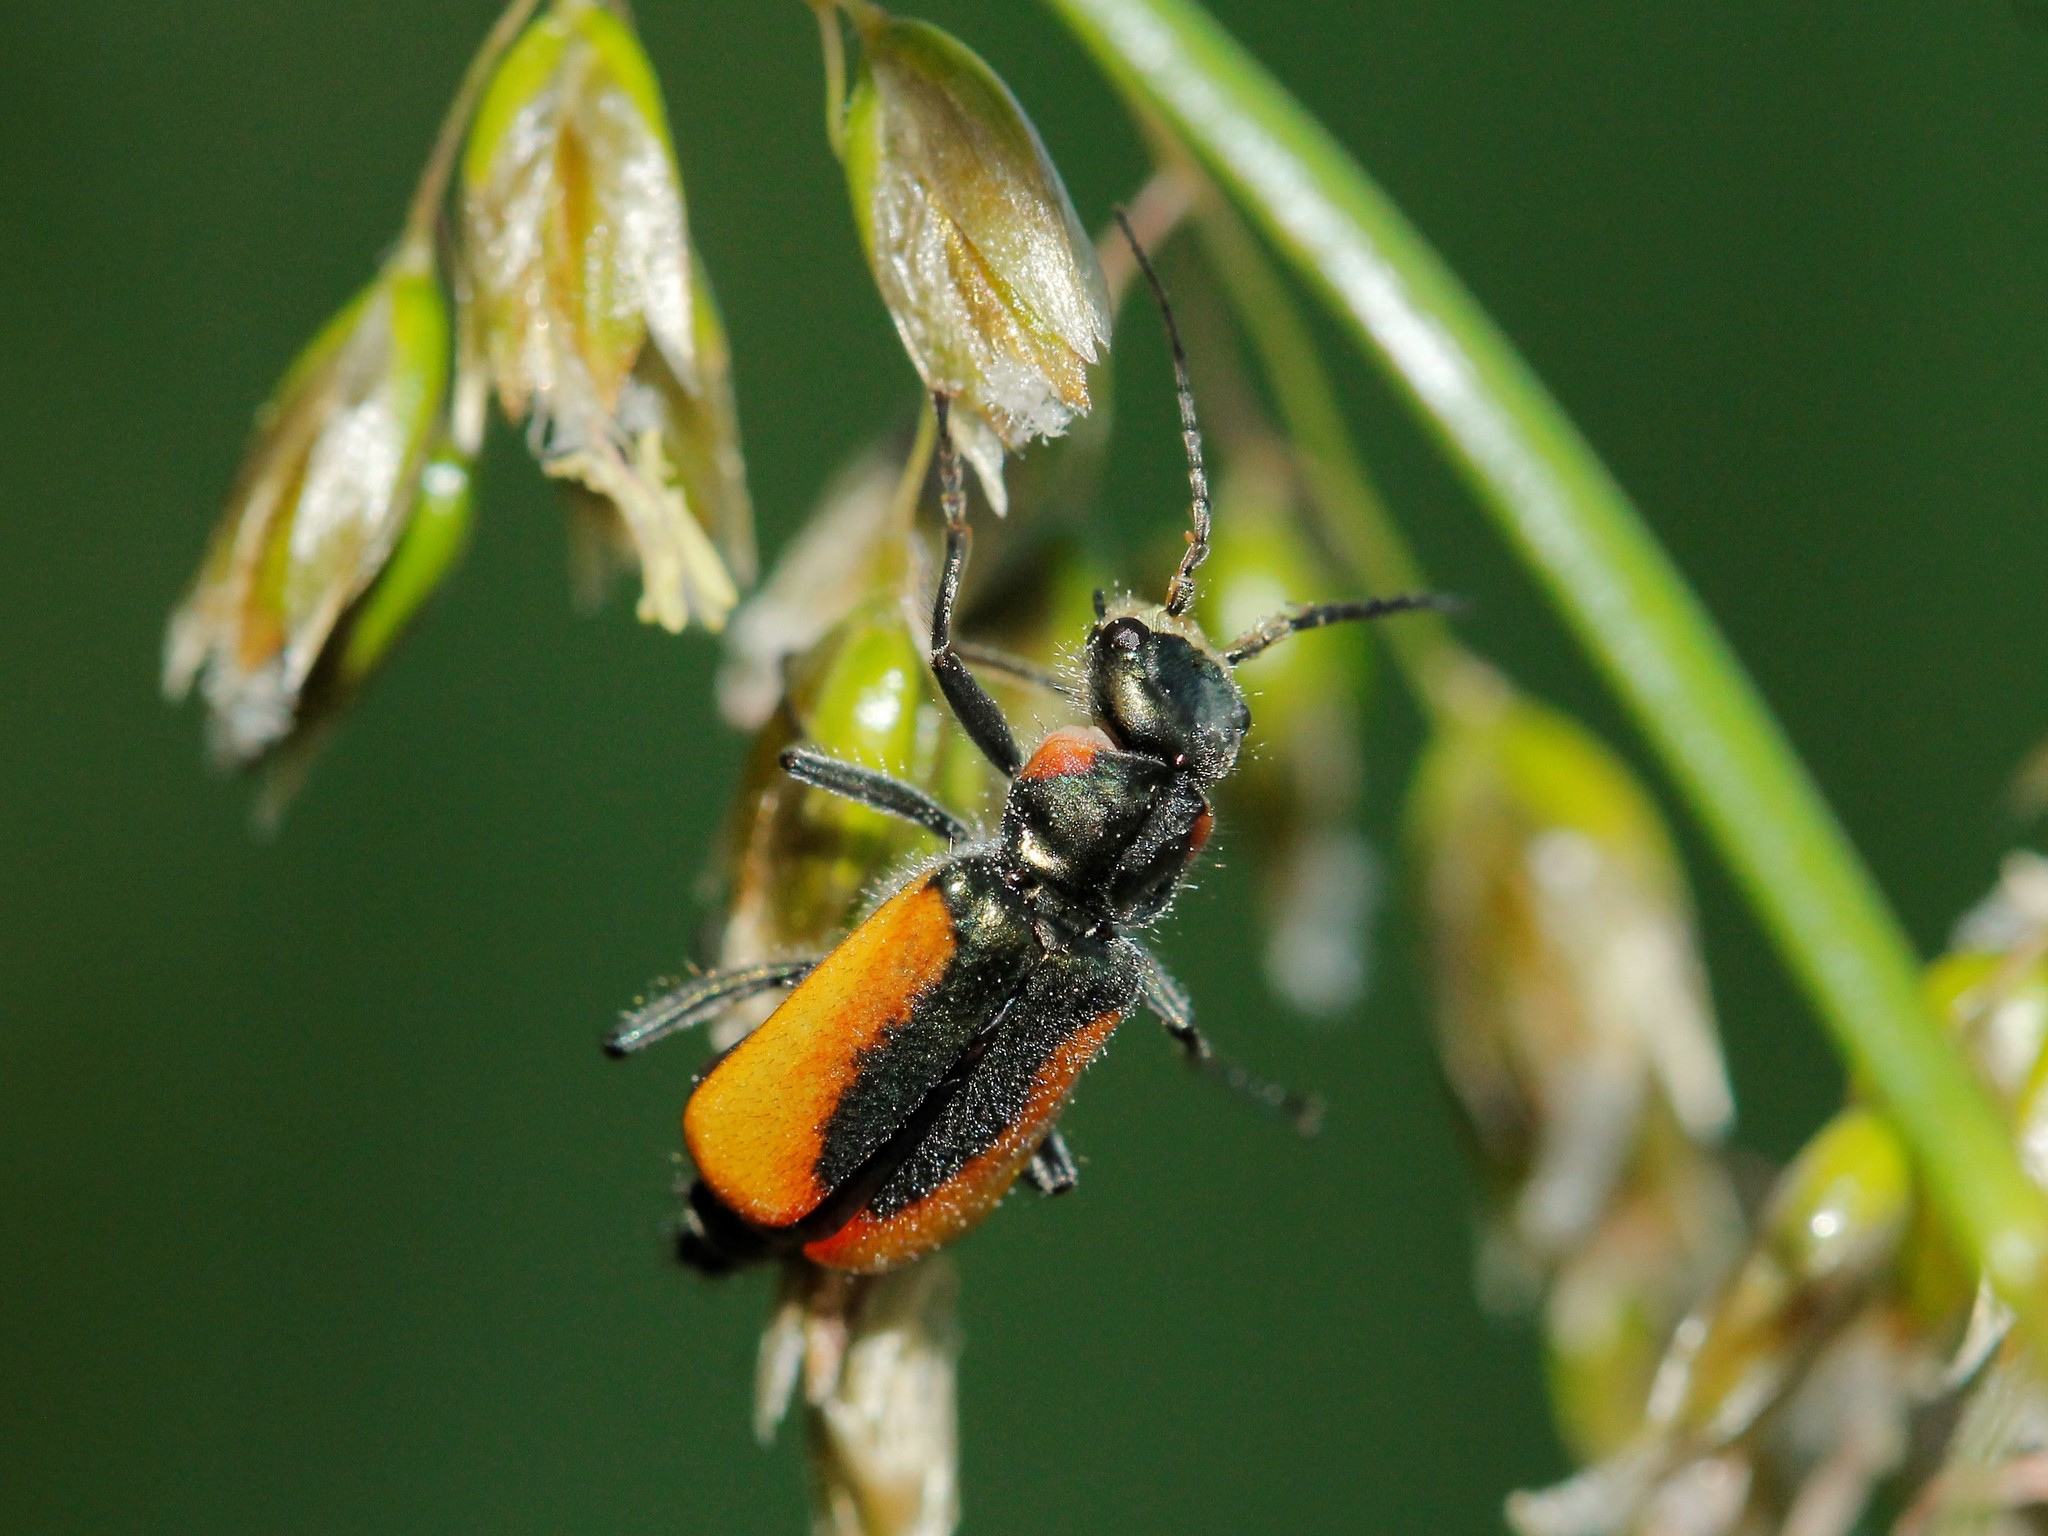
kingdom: Animalia
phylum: Arthropoda
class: Insecta
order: Coleoptera
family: Melyridae
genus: Malachius
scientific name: Malachius aeneus
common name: Scarlet malachite beetle
